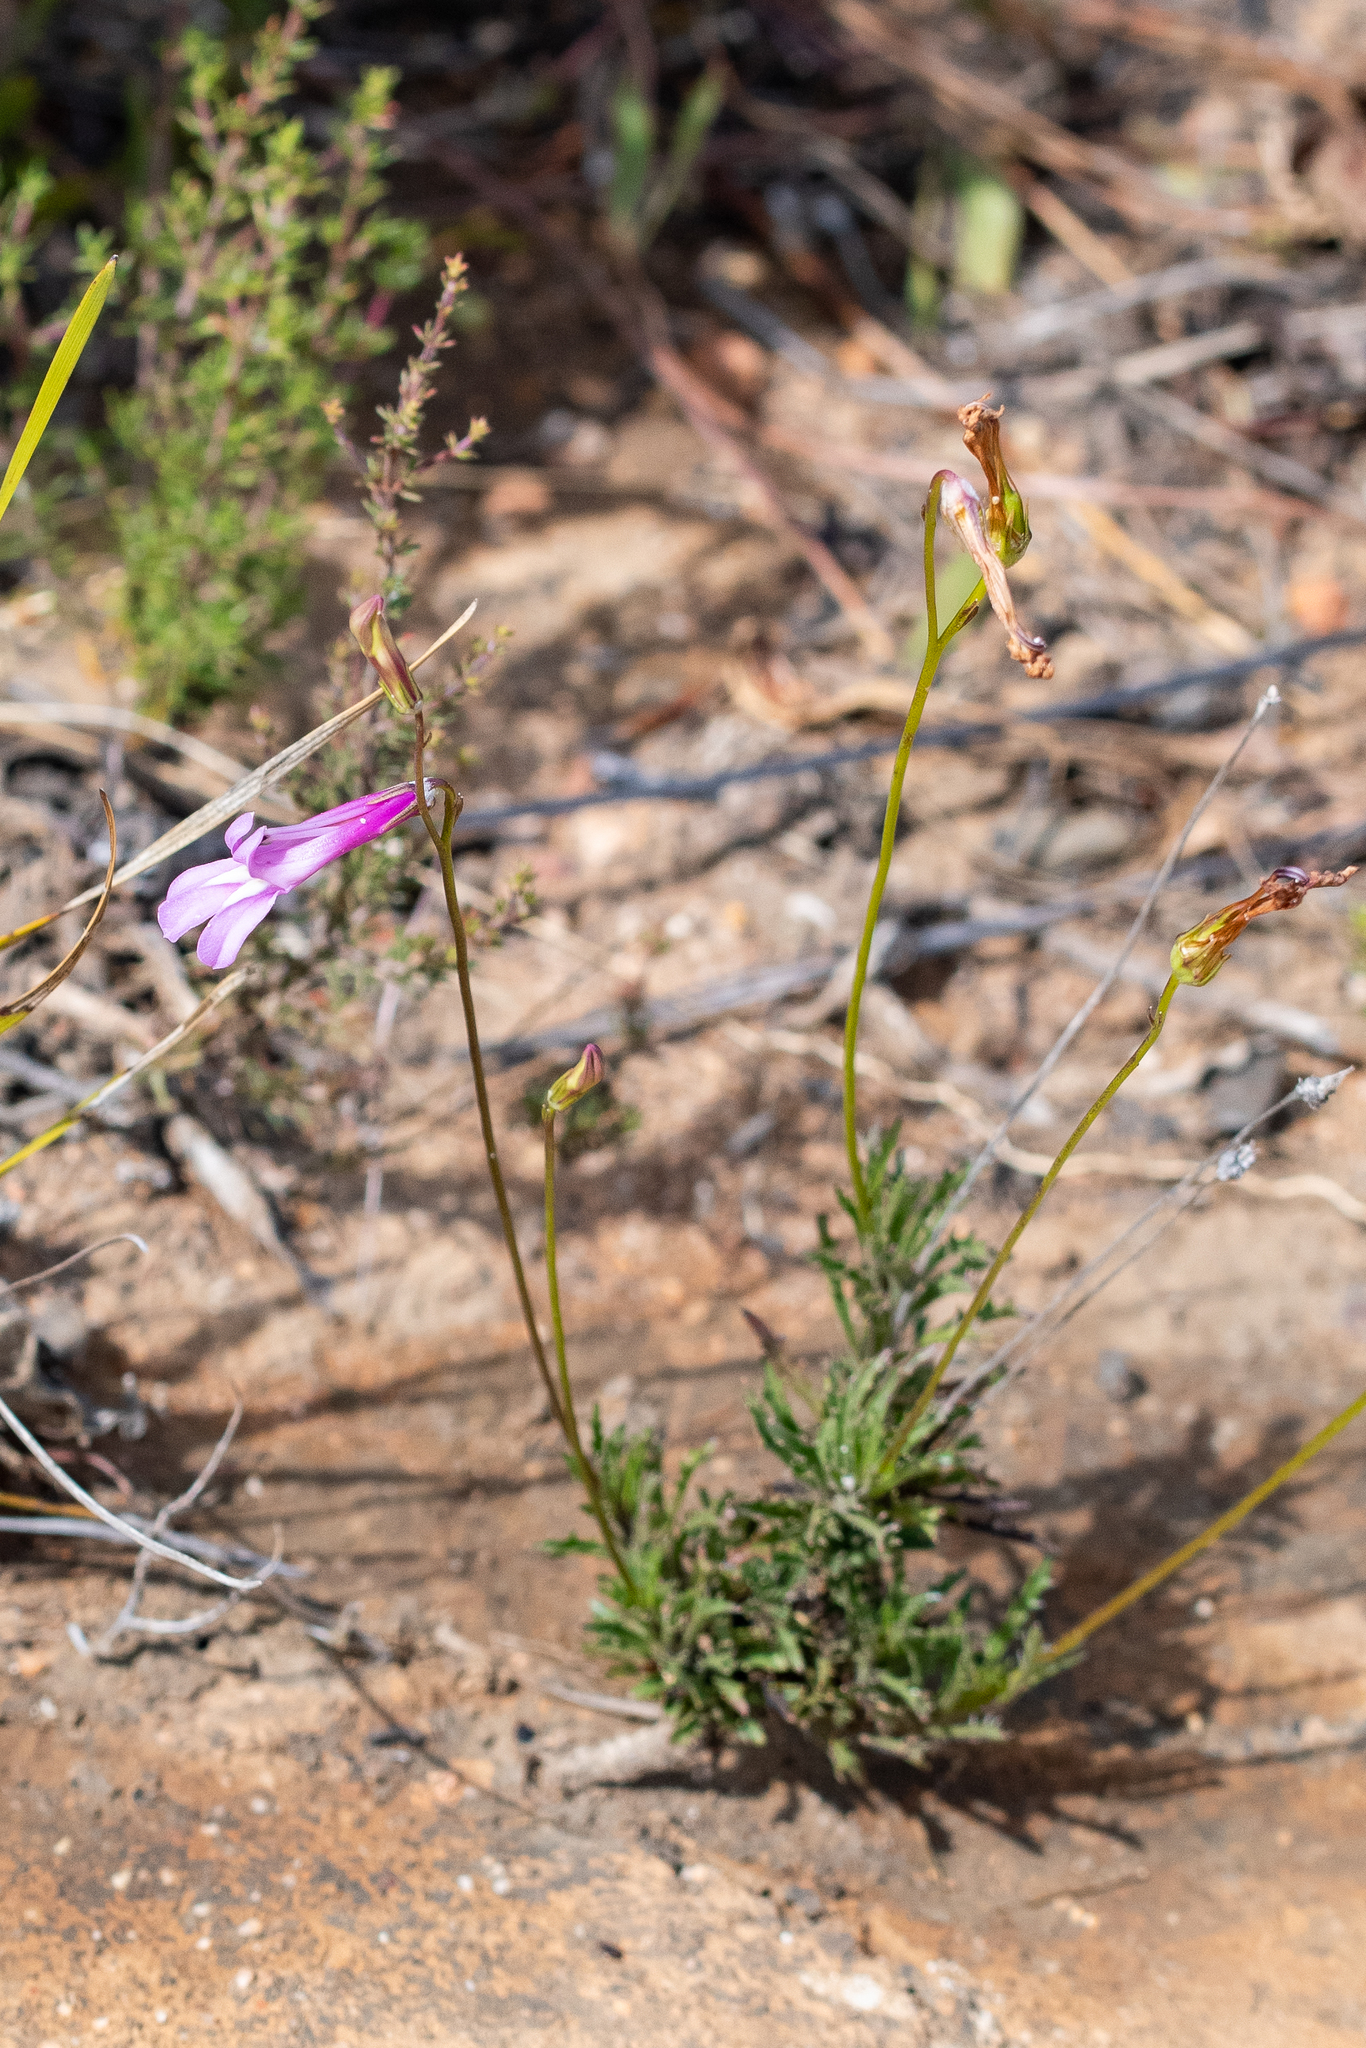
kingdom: Plantae
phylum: Tracheophyta
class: Magnoliopsida
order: Asterales
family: Campanulaceae
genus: Lobelia
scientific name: Lobelia coronopifolia
